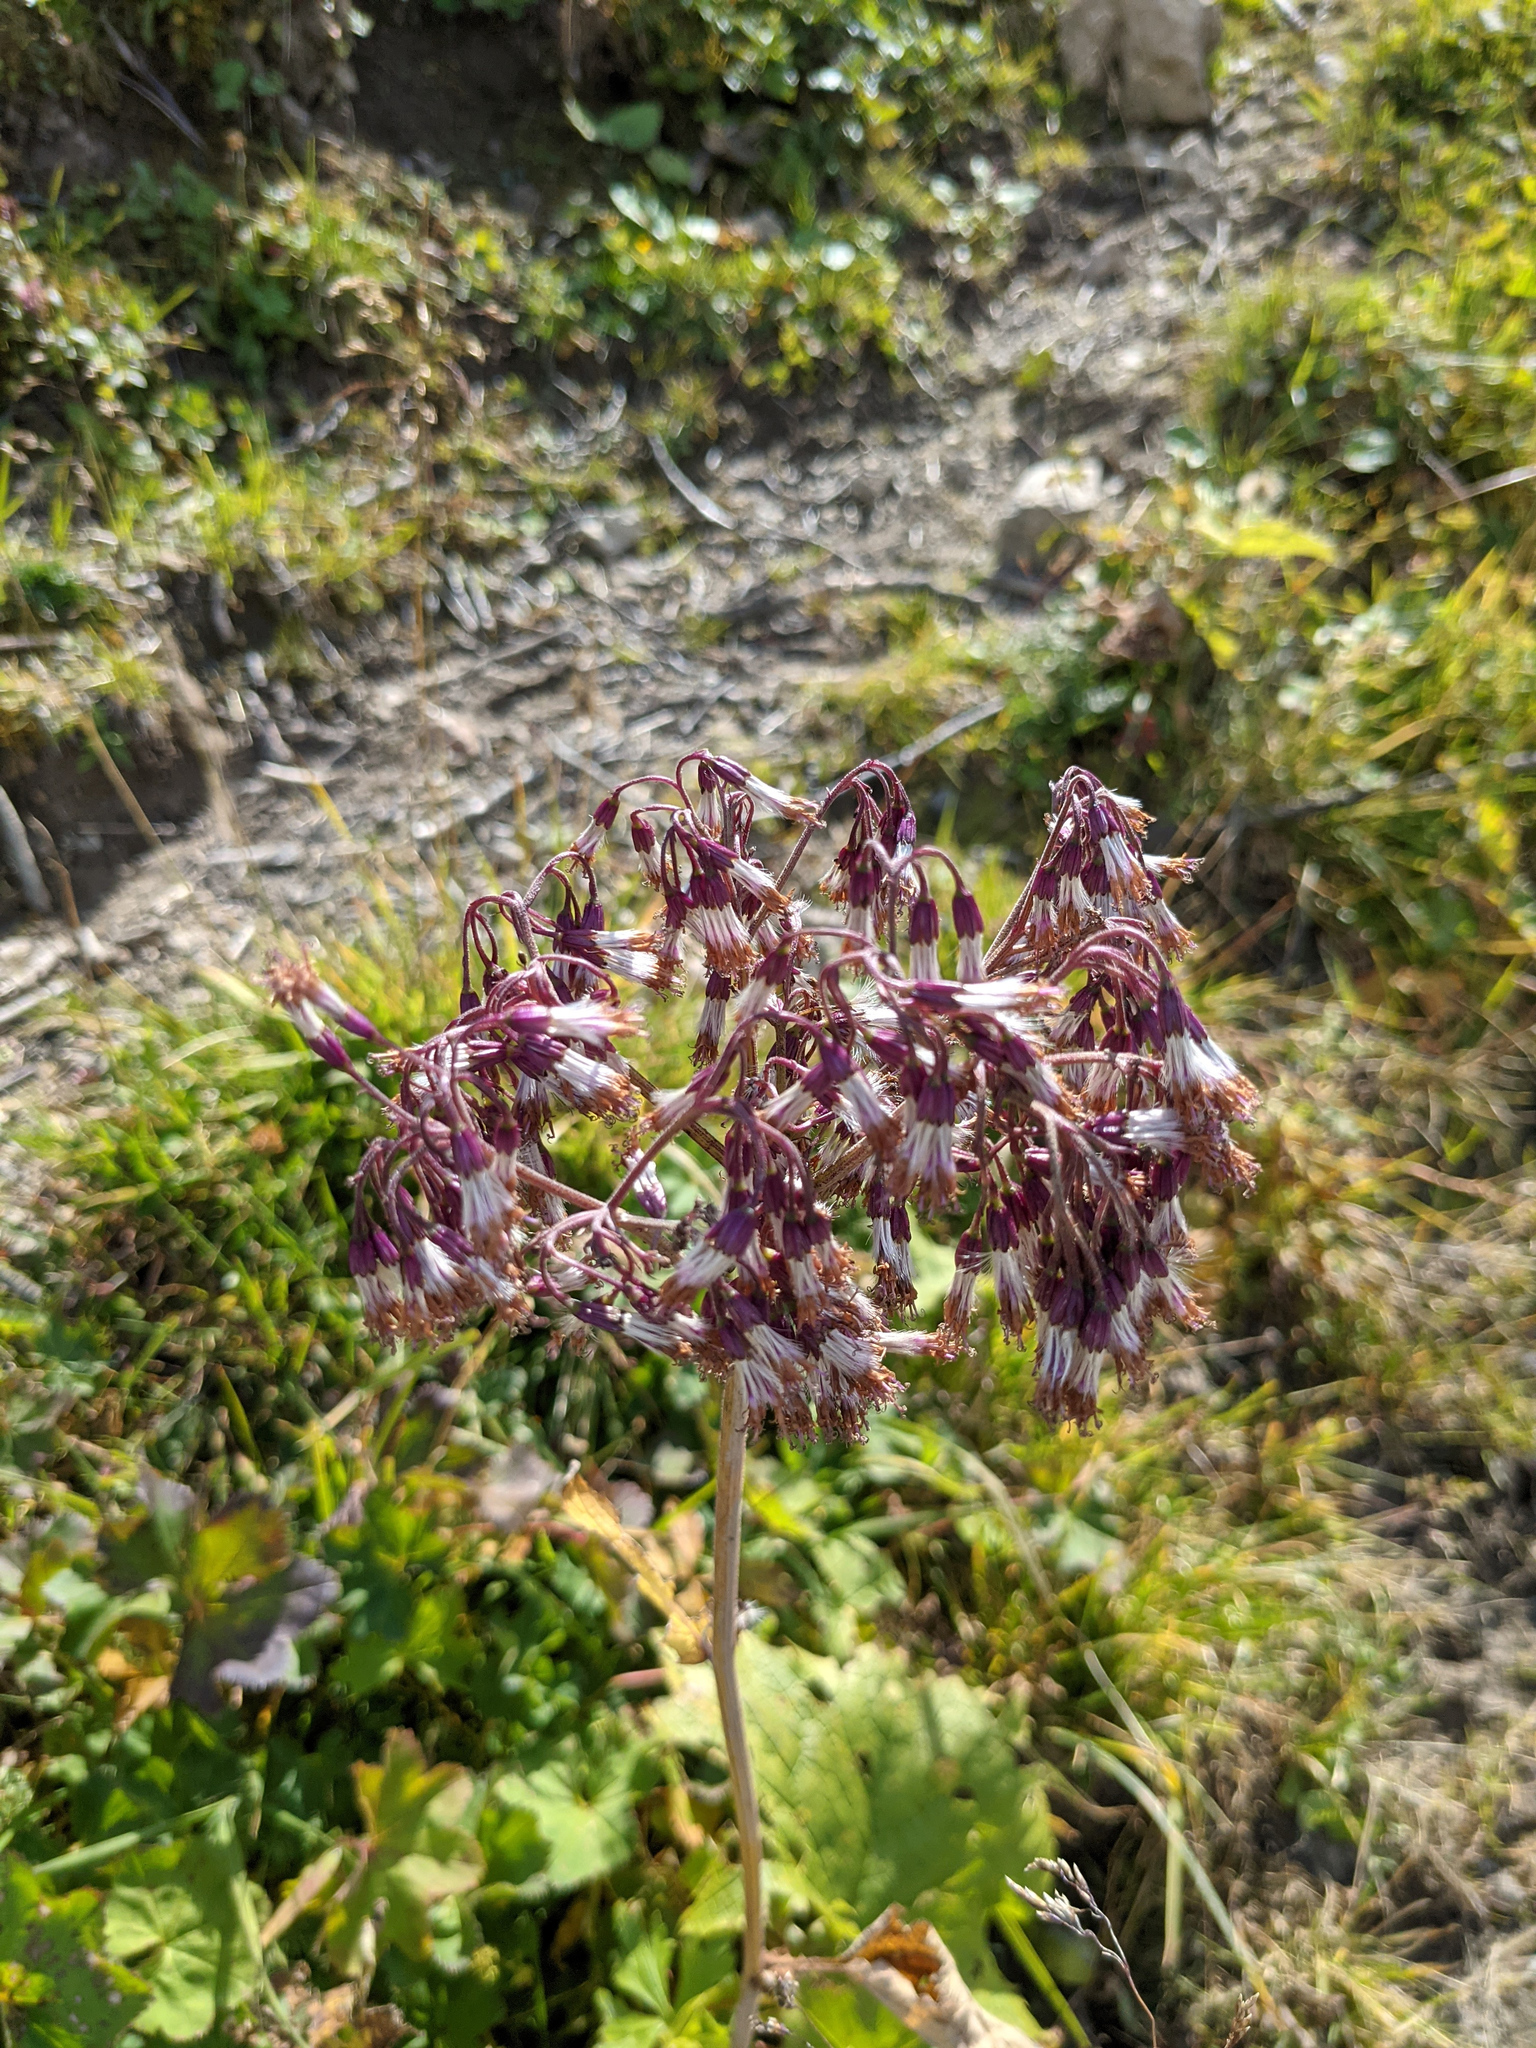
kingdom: Plantae
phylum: Tracheophyta
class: Magnoliopsida
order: Asterales
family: Asteraceae
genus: Adenostyles
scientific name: Adenostyles alliariae
